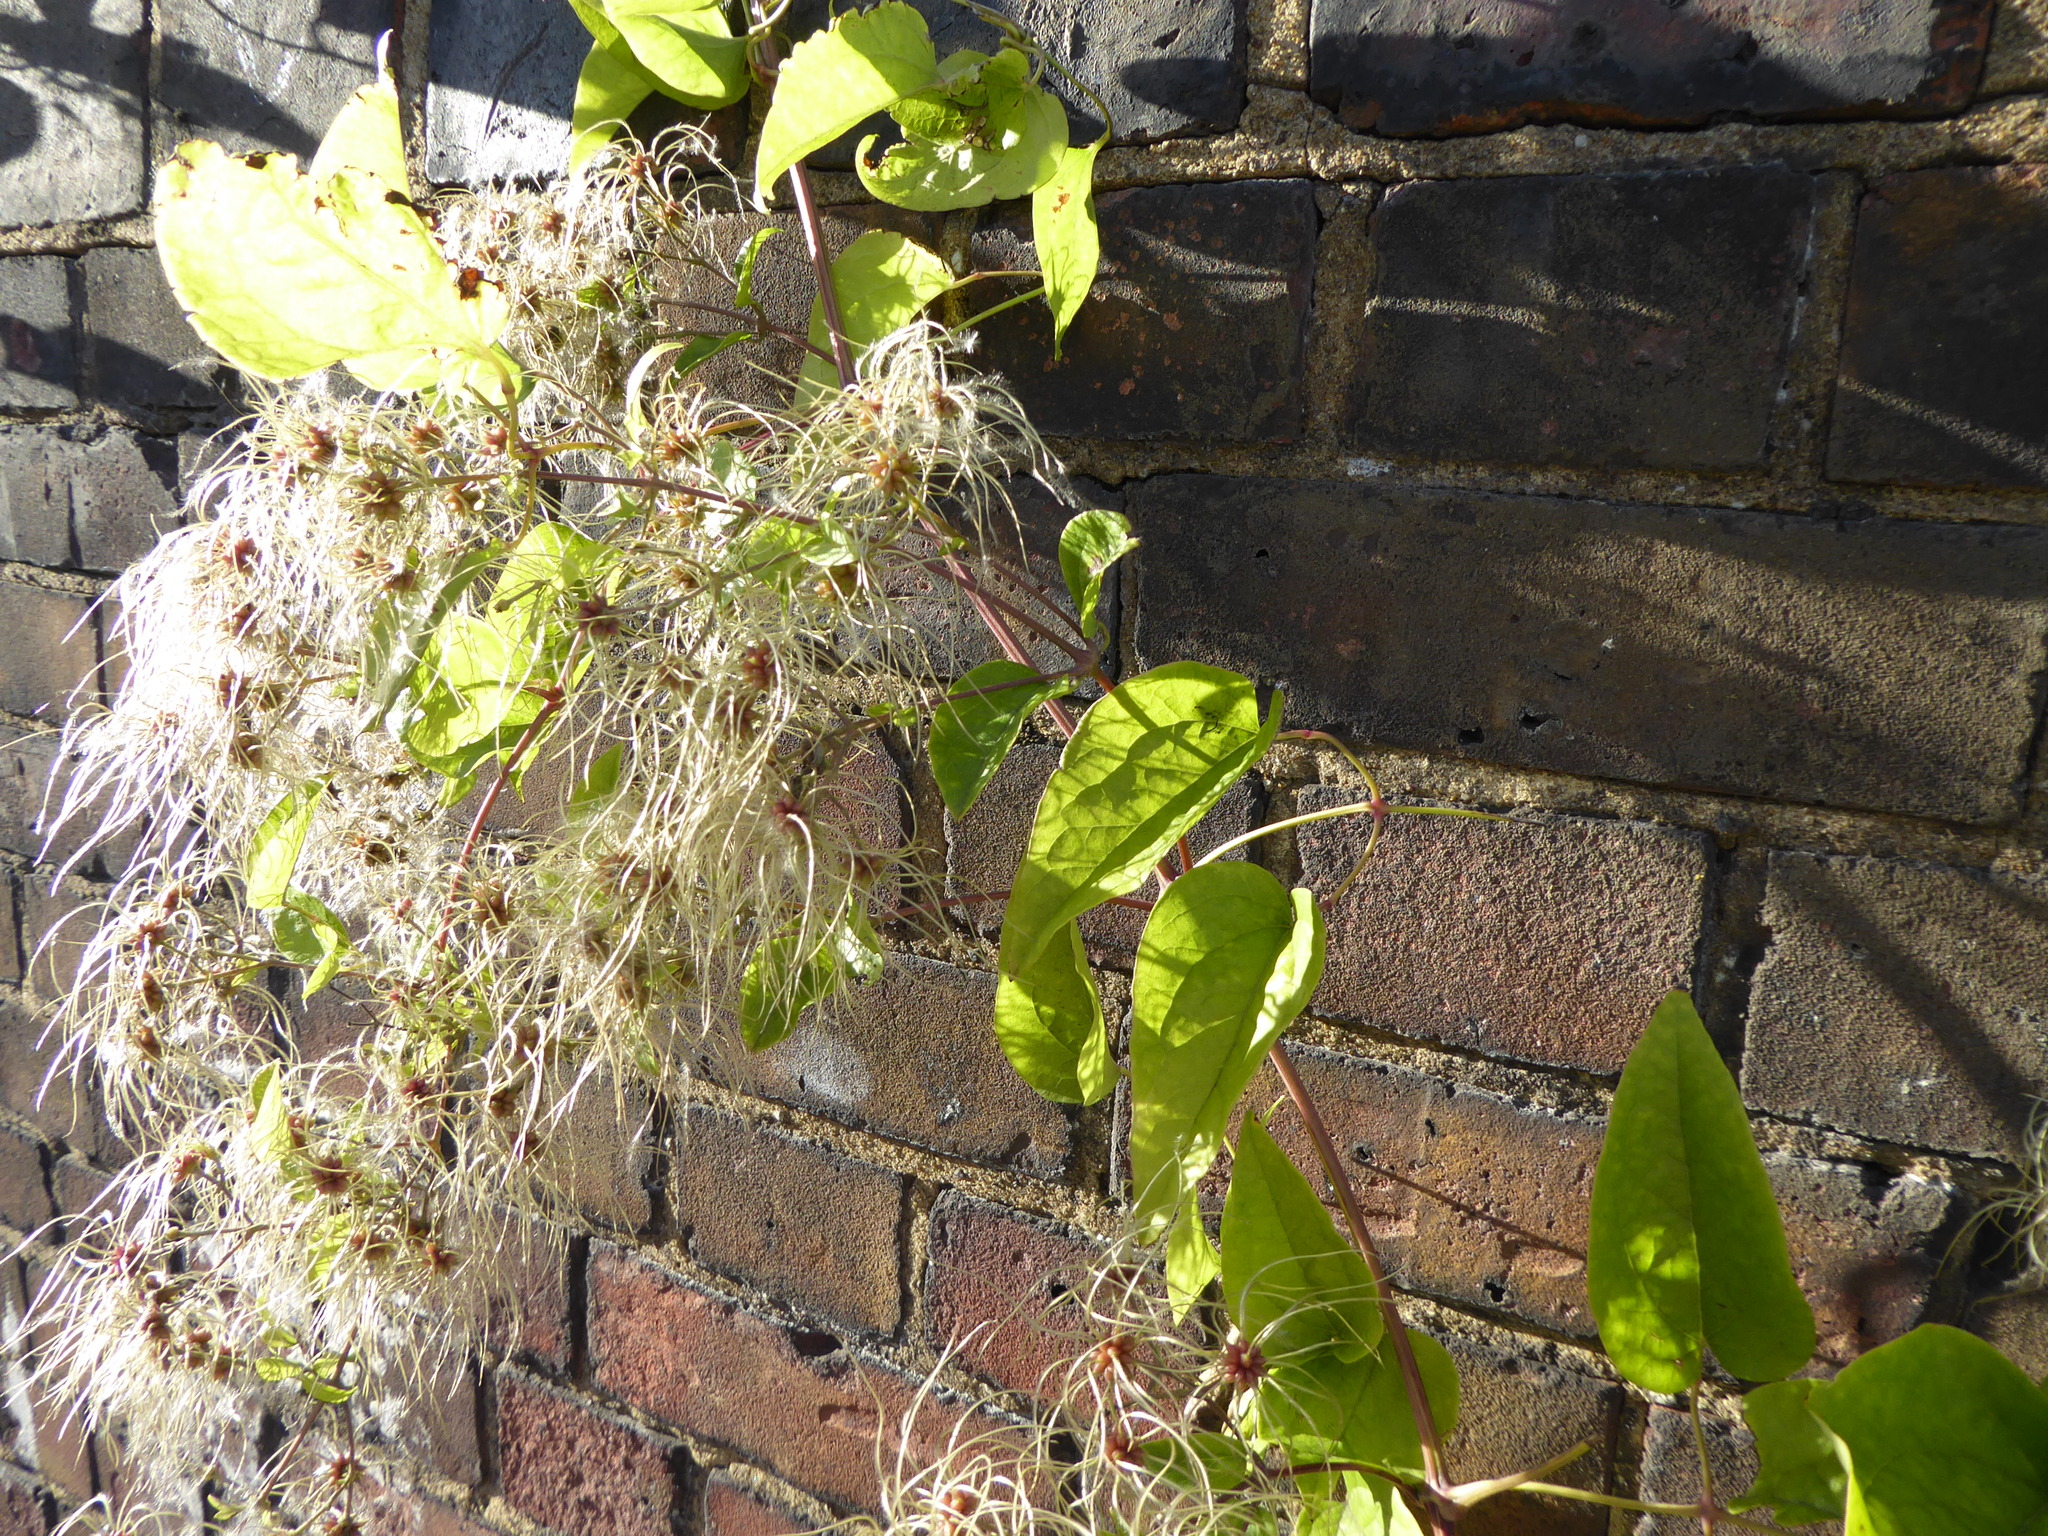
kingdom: Plantae
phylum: Tracheophyta
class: Magnoliopsida
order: Ranunculales
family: Ranunculaceae
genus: Clematis
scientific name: Clematis vitalba
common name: Evergreen clematis
